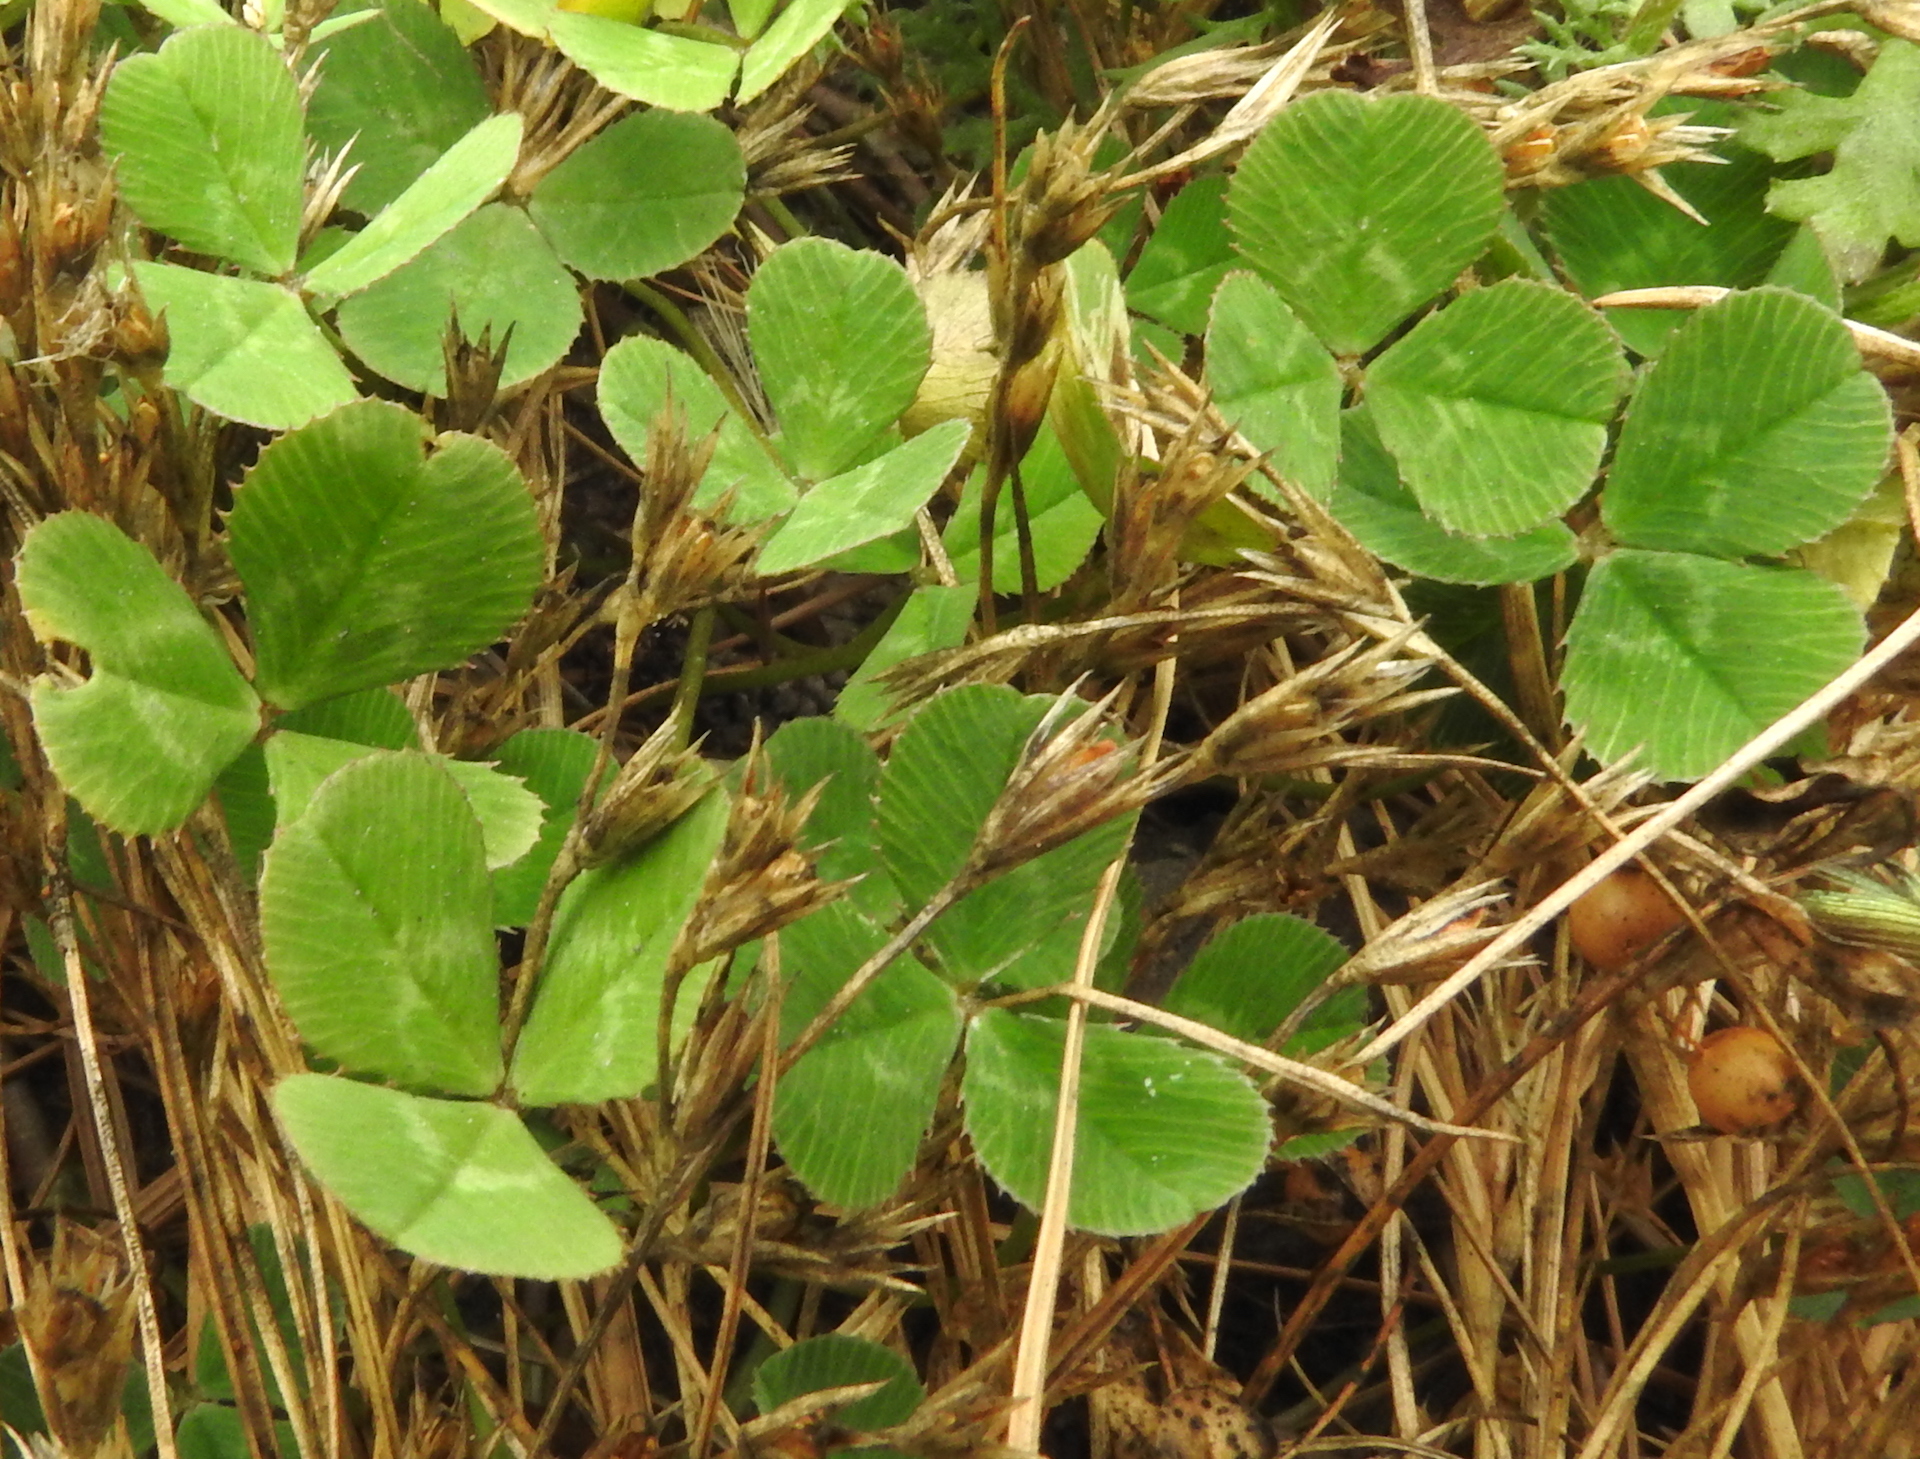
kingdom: Plantae
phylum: Tracheophyta
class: Magnoliopsida
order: Fabales
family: Fabaceae
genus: Trifolium
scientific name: Trifolium repens
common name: White clover
